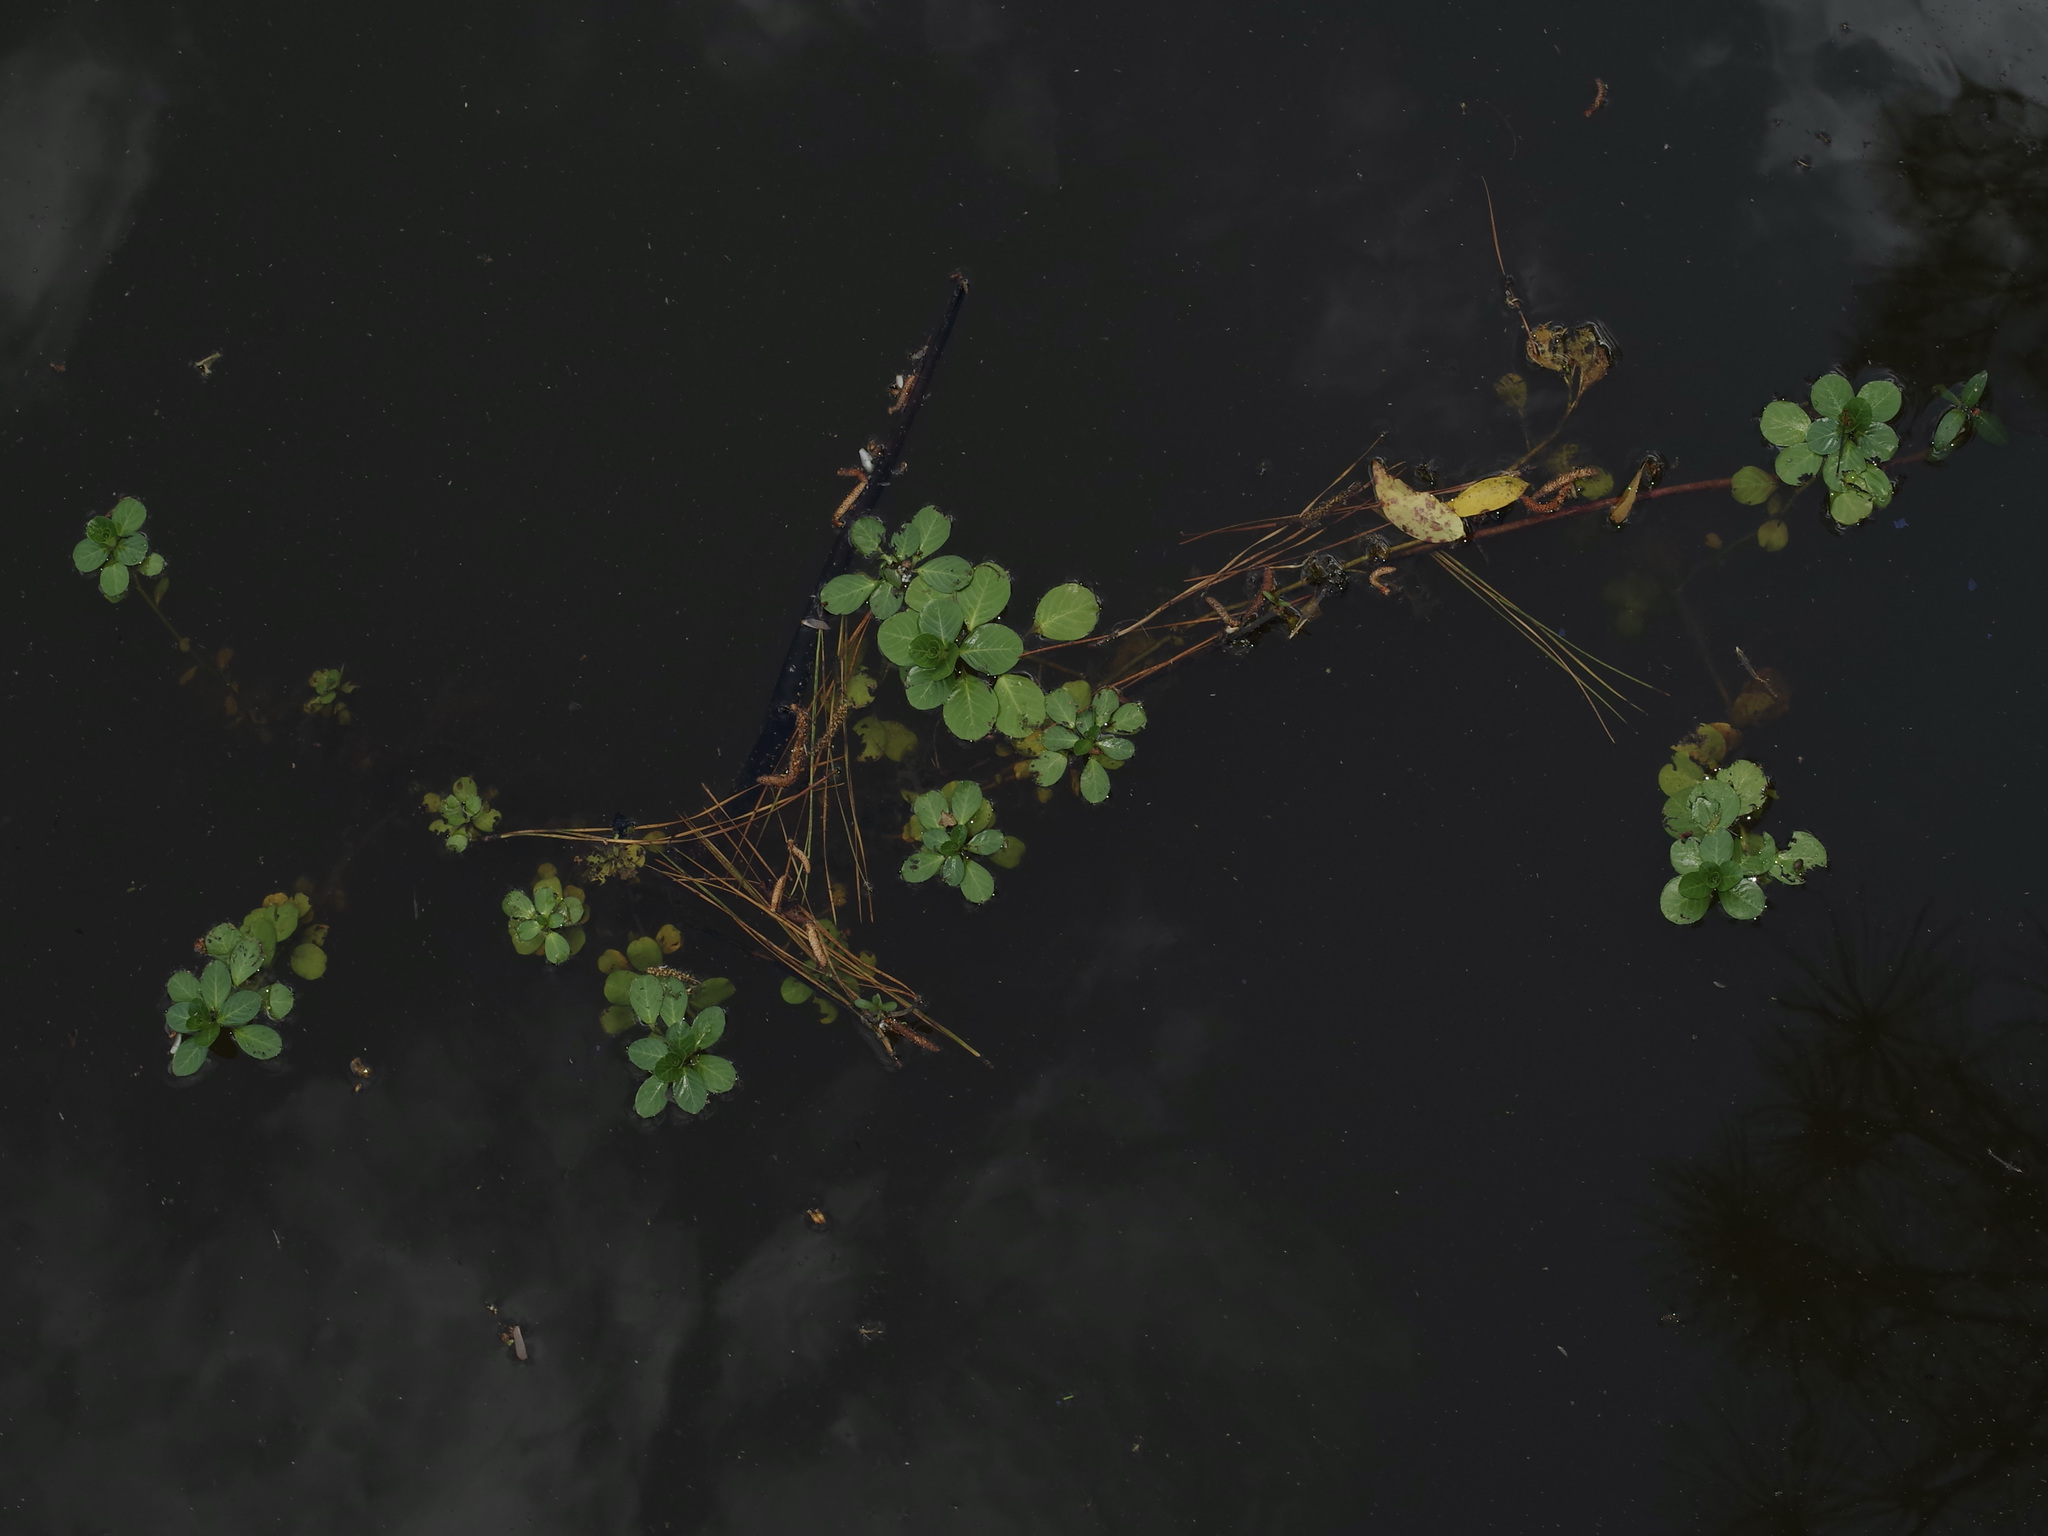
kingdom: Plantae
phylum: Tracheophyta
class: Magnoliopsida
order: Myrtales
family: Onagraceae
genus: Ludwigia
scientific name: Ludwigia peploides
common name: Floating primrose-willow
